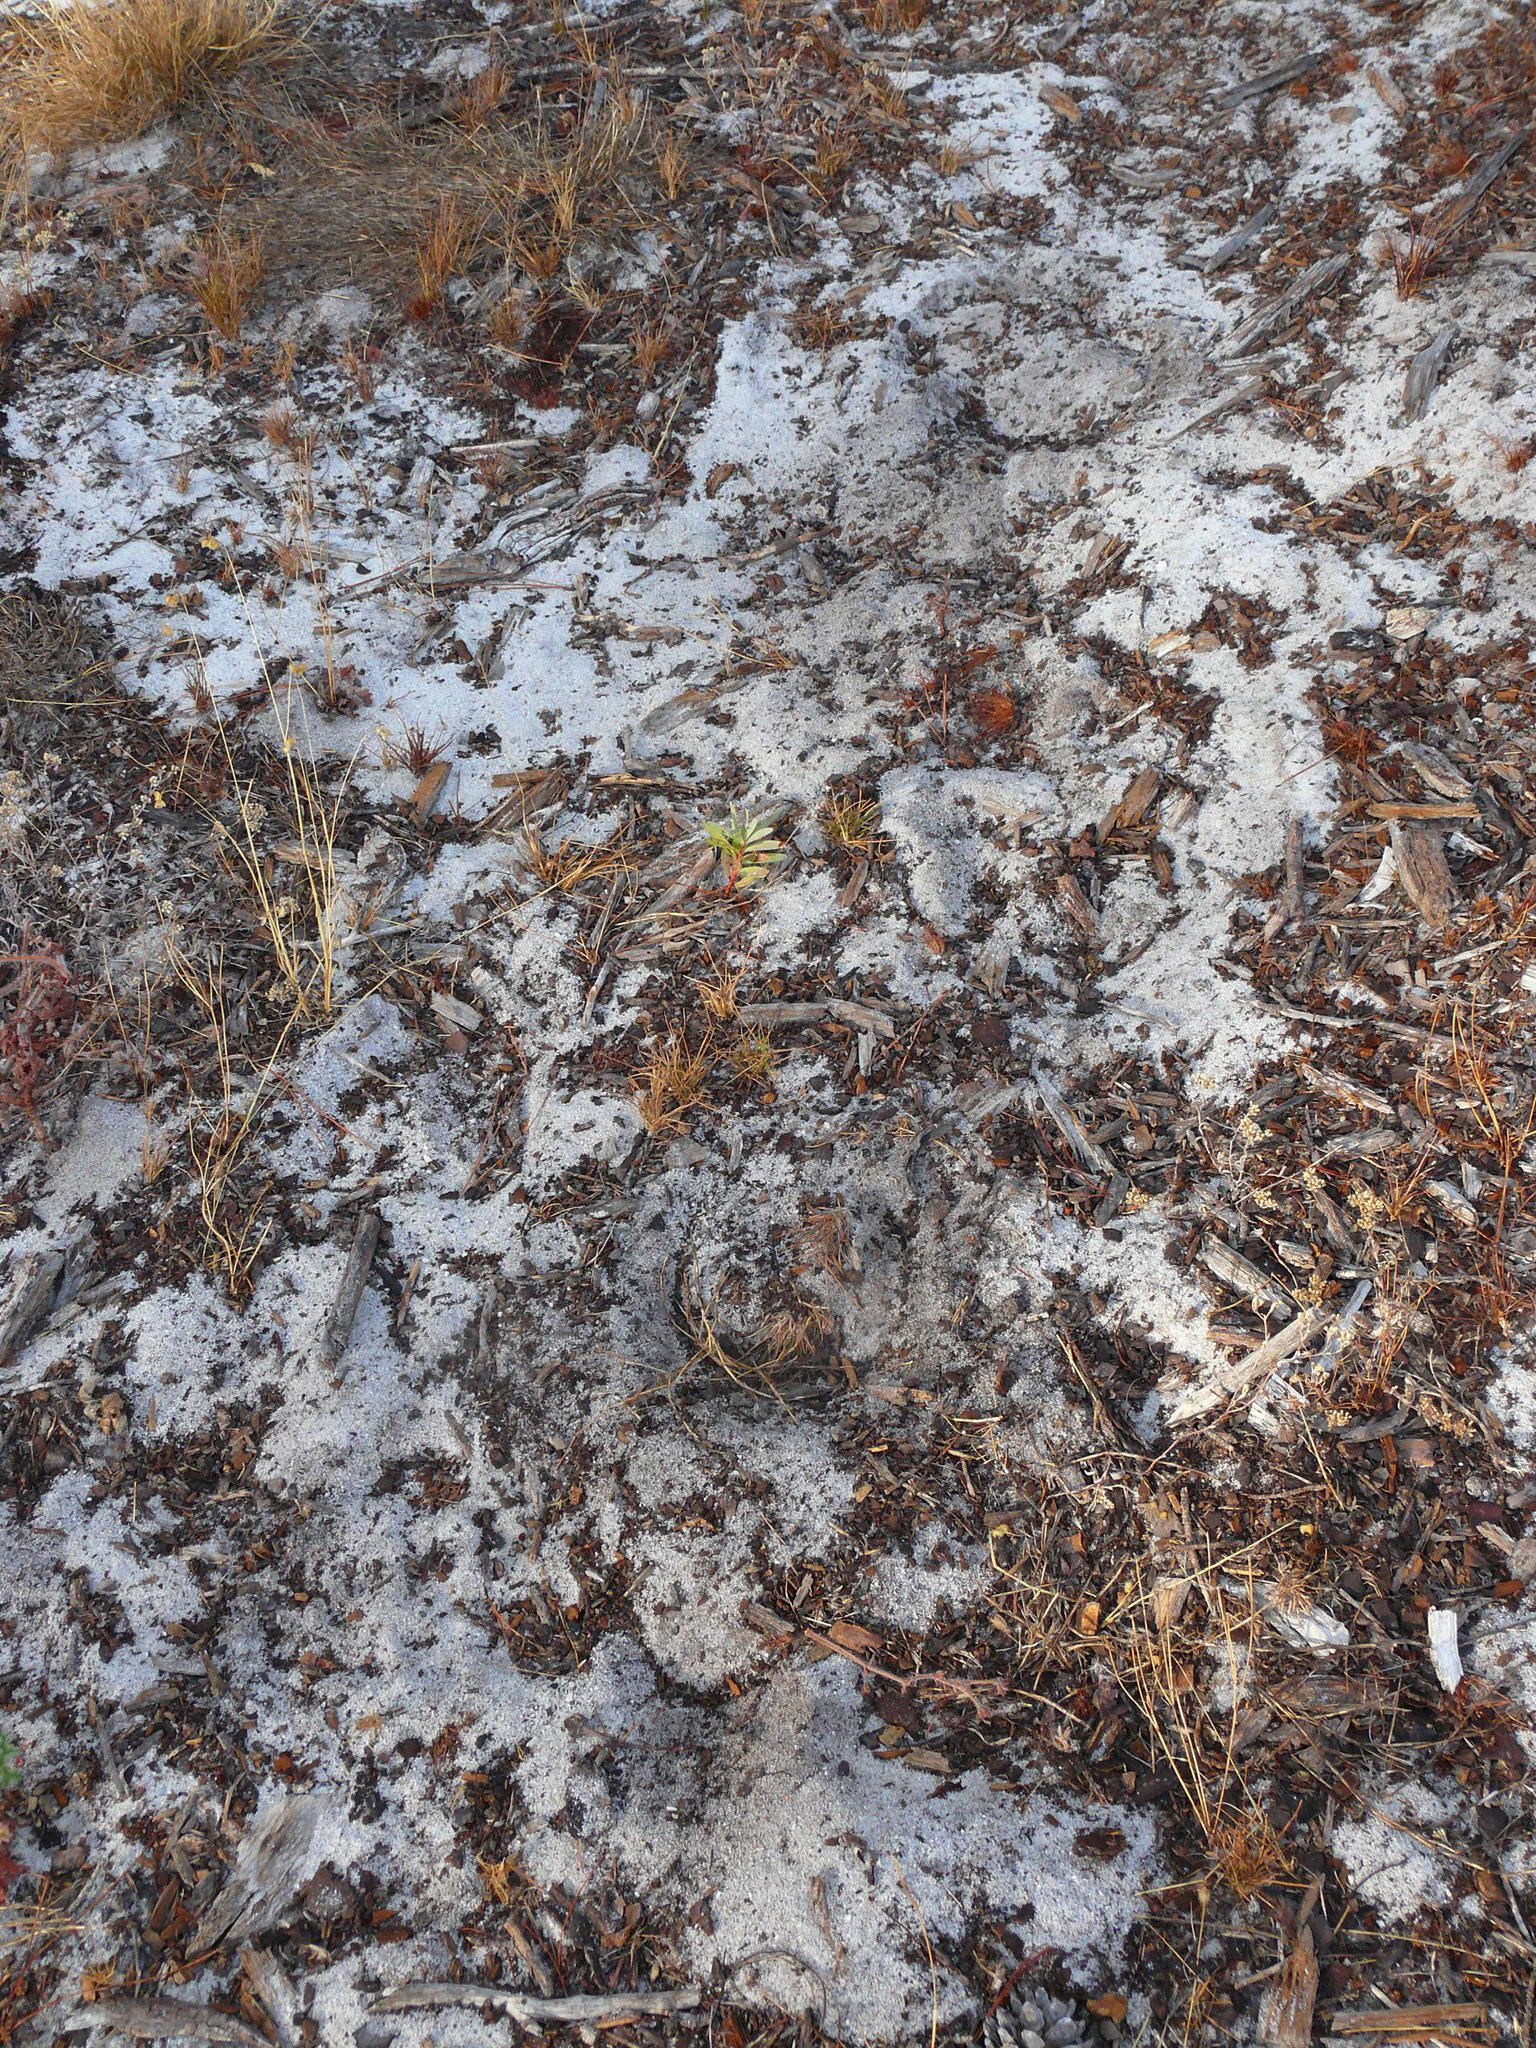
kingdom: Animalia
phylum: Chordata
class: Mammalia
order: Perissodactyla
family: Equidae
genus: Equus
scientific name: Equus caballus
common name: Horse
